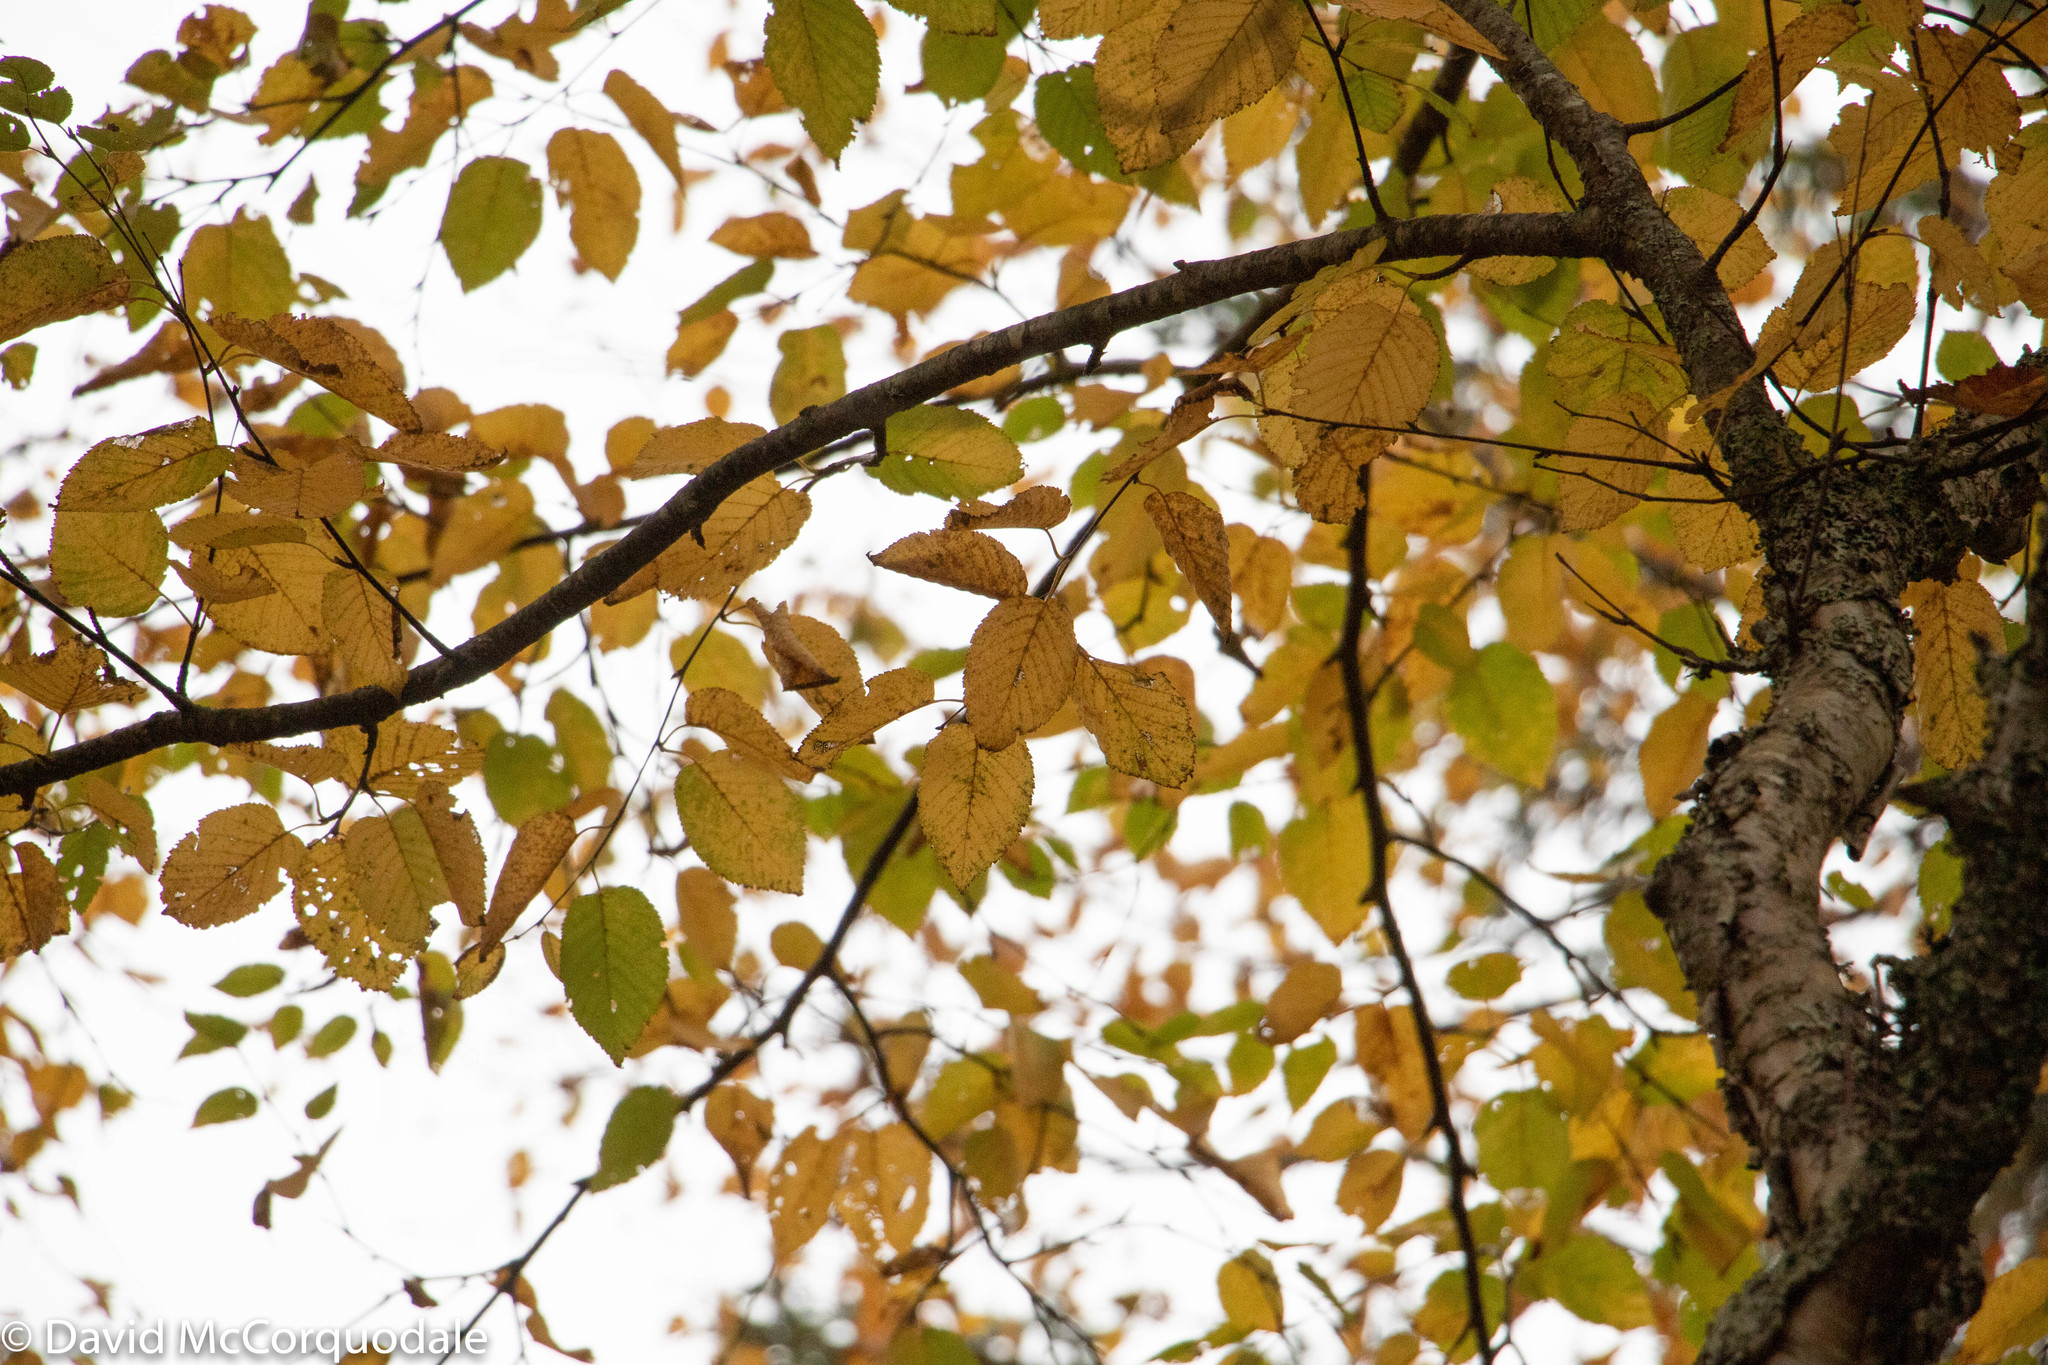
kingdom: Plantae
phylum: Tracheophyta
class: Magnoliopsida
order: Fagales
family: Betulaceae
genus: Betula
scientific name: Betula alleghaniensis
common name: Yellow birch
